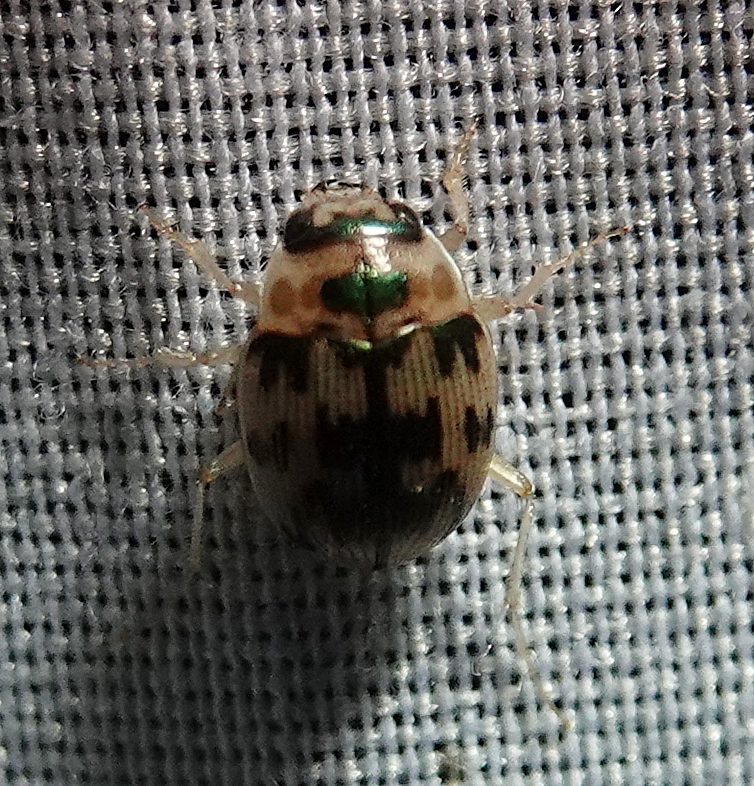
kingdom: Animalia
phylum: Arthropoda
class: Insecta
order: Coleoptera
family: Carabidae
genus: Omophron
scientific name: Omophron tessellatum
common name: Mosaic round sand beetle
